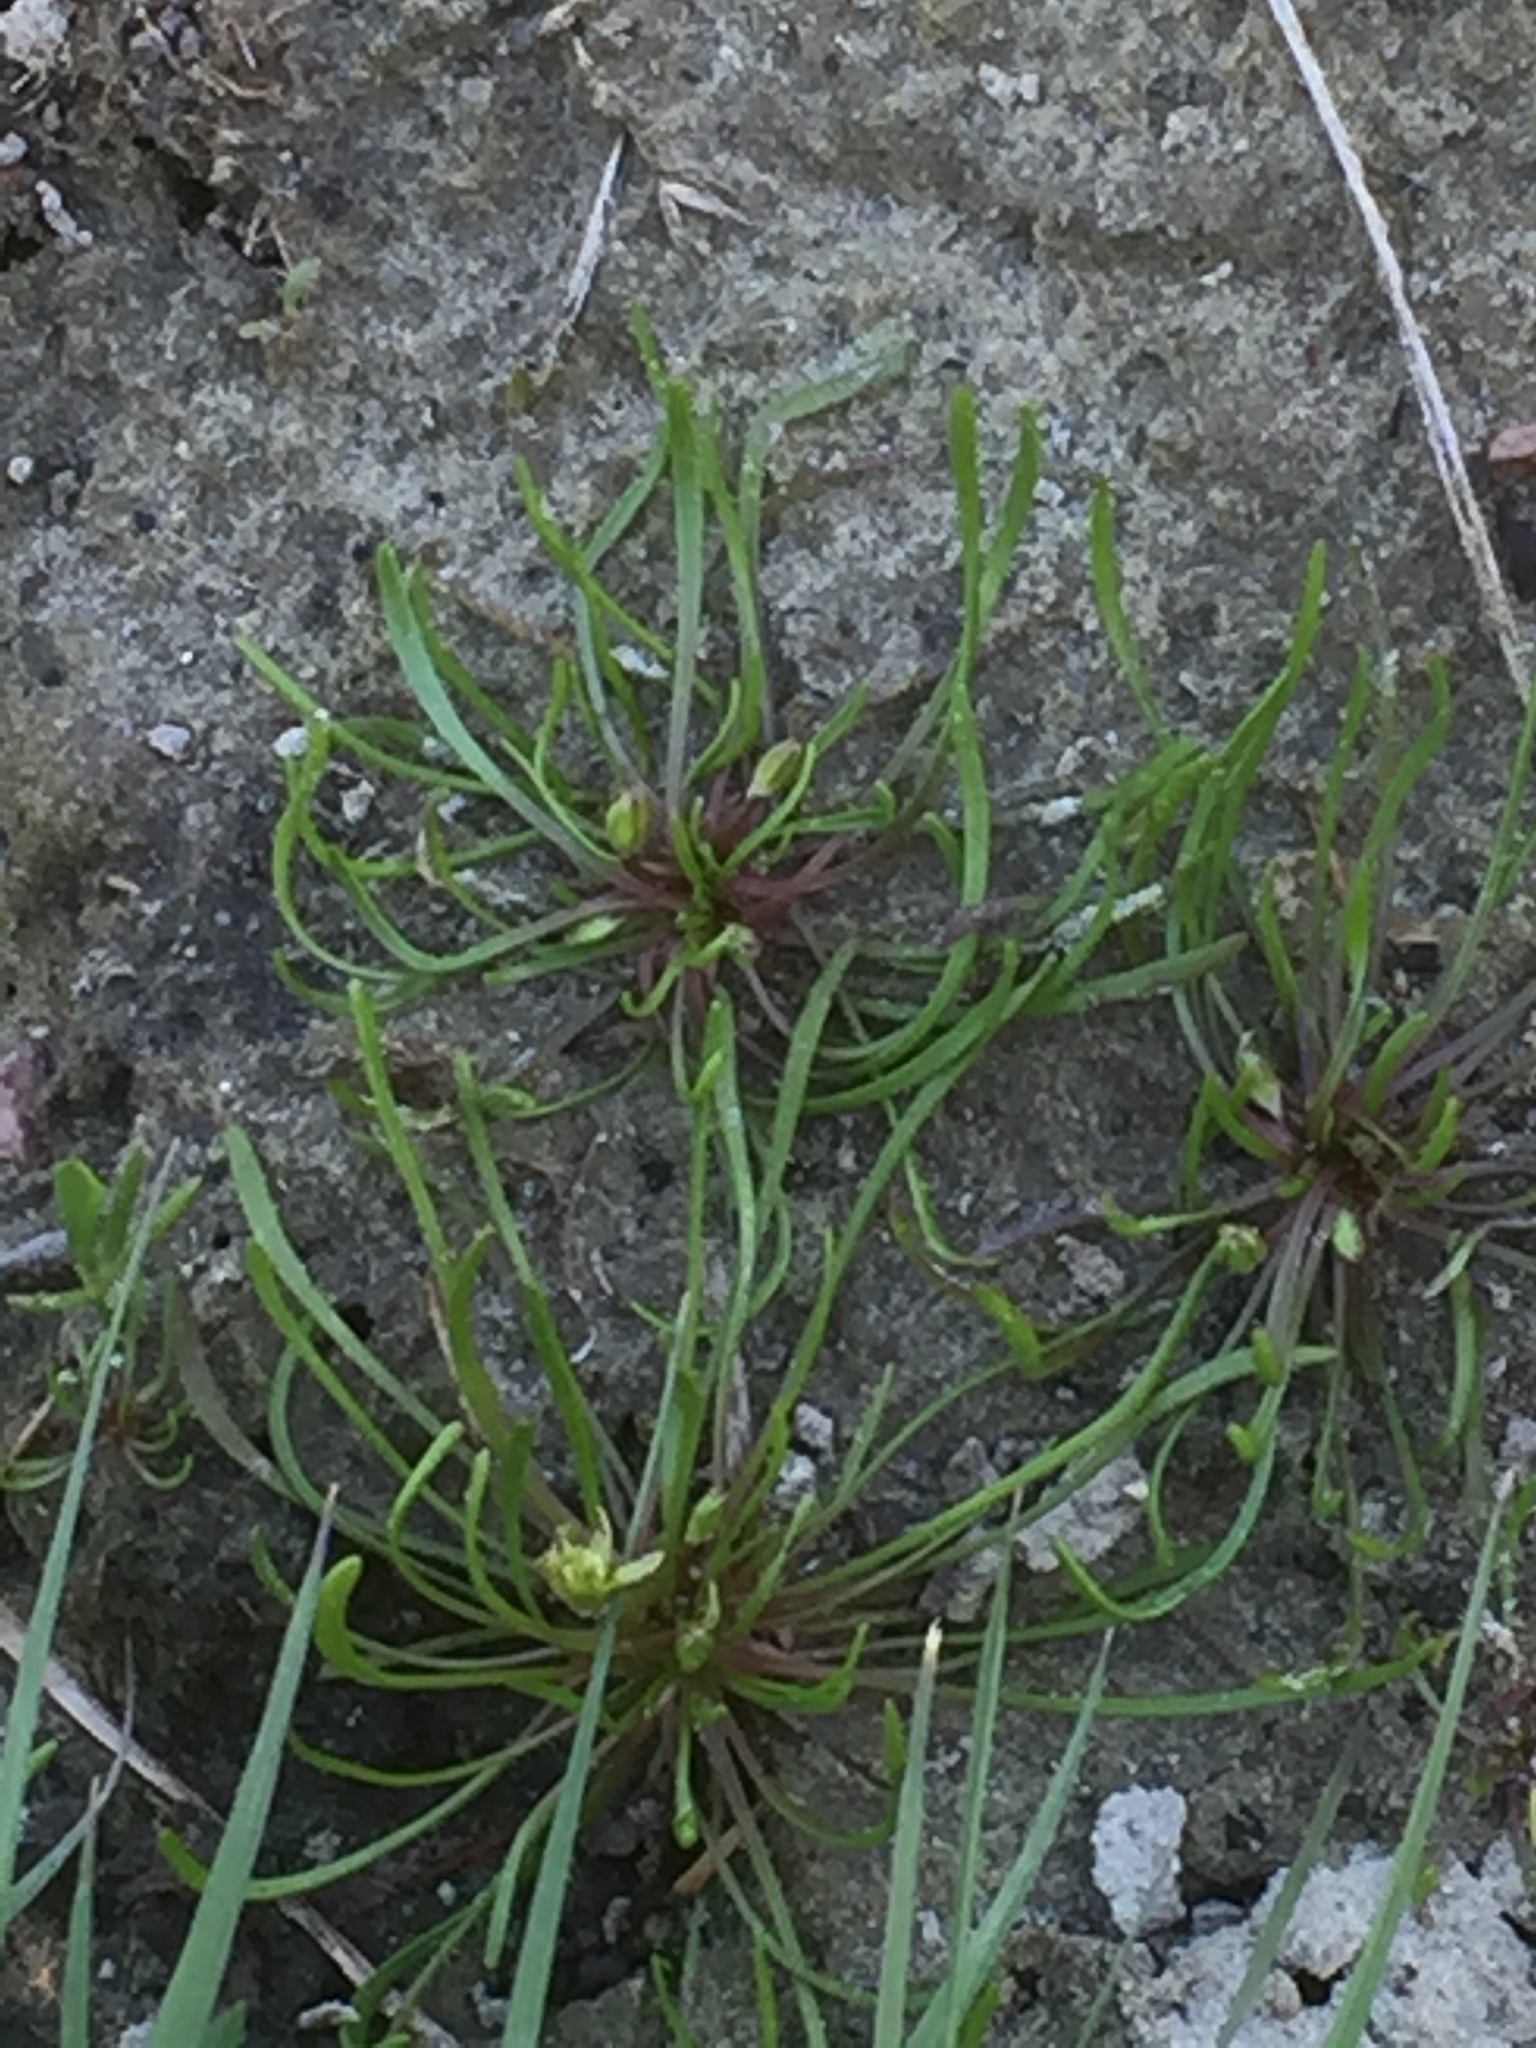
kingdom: Plantae
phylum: Tracheophyta
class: Magnoliopsida
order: Ranunculales
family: Ranunculaceae
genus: Myosurus
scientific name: Myosurus minimus
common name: Mousetail
